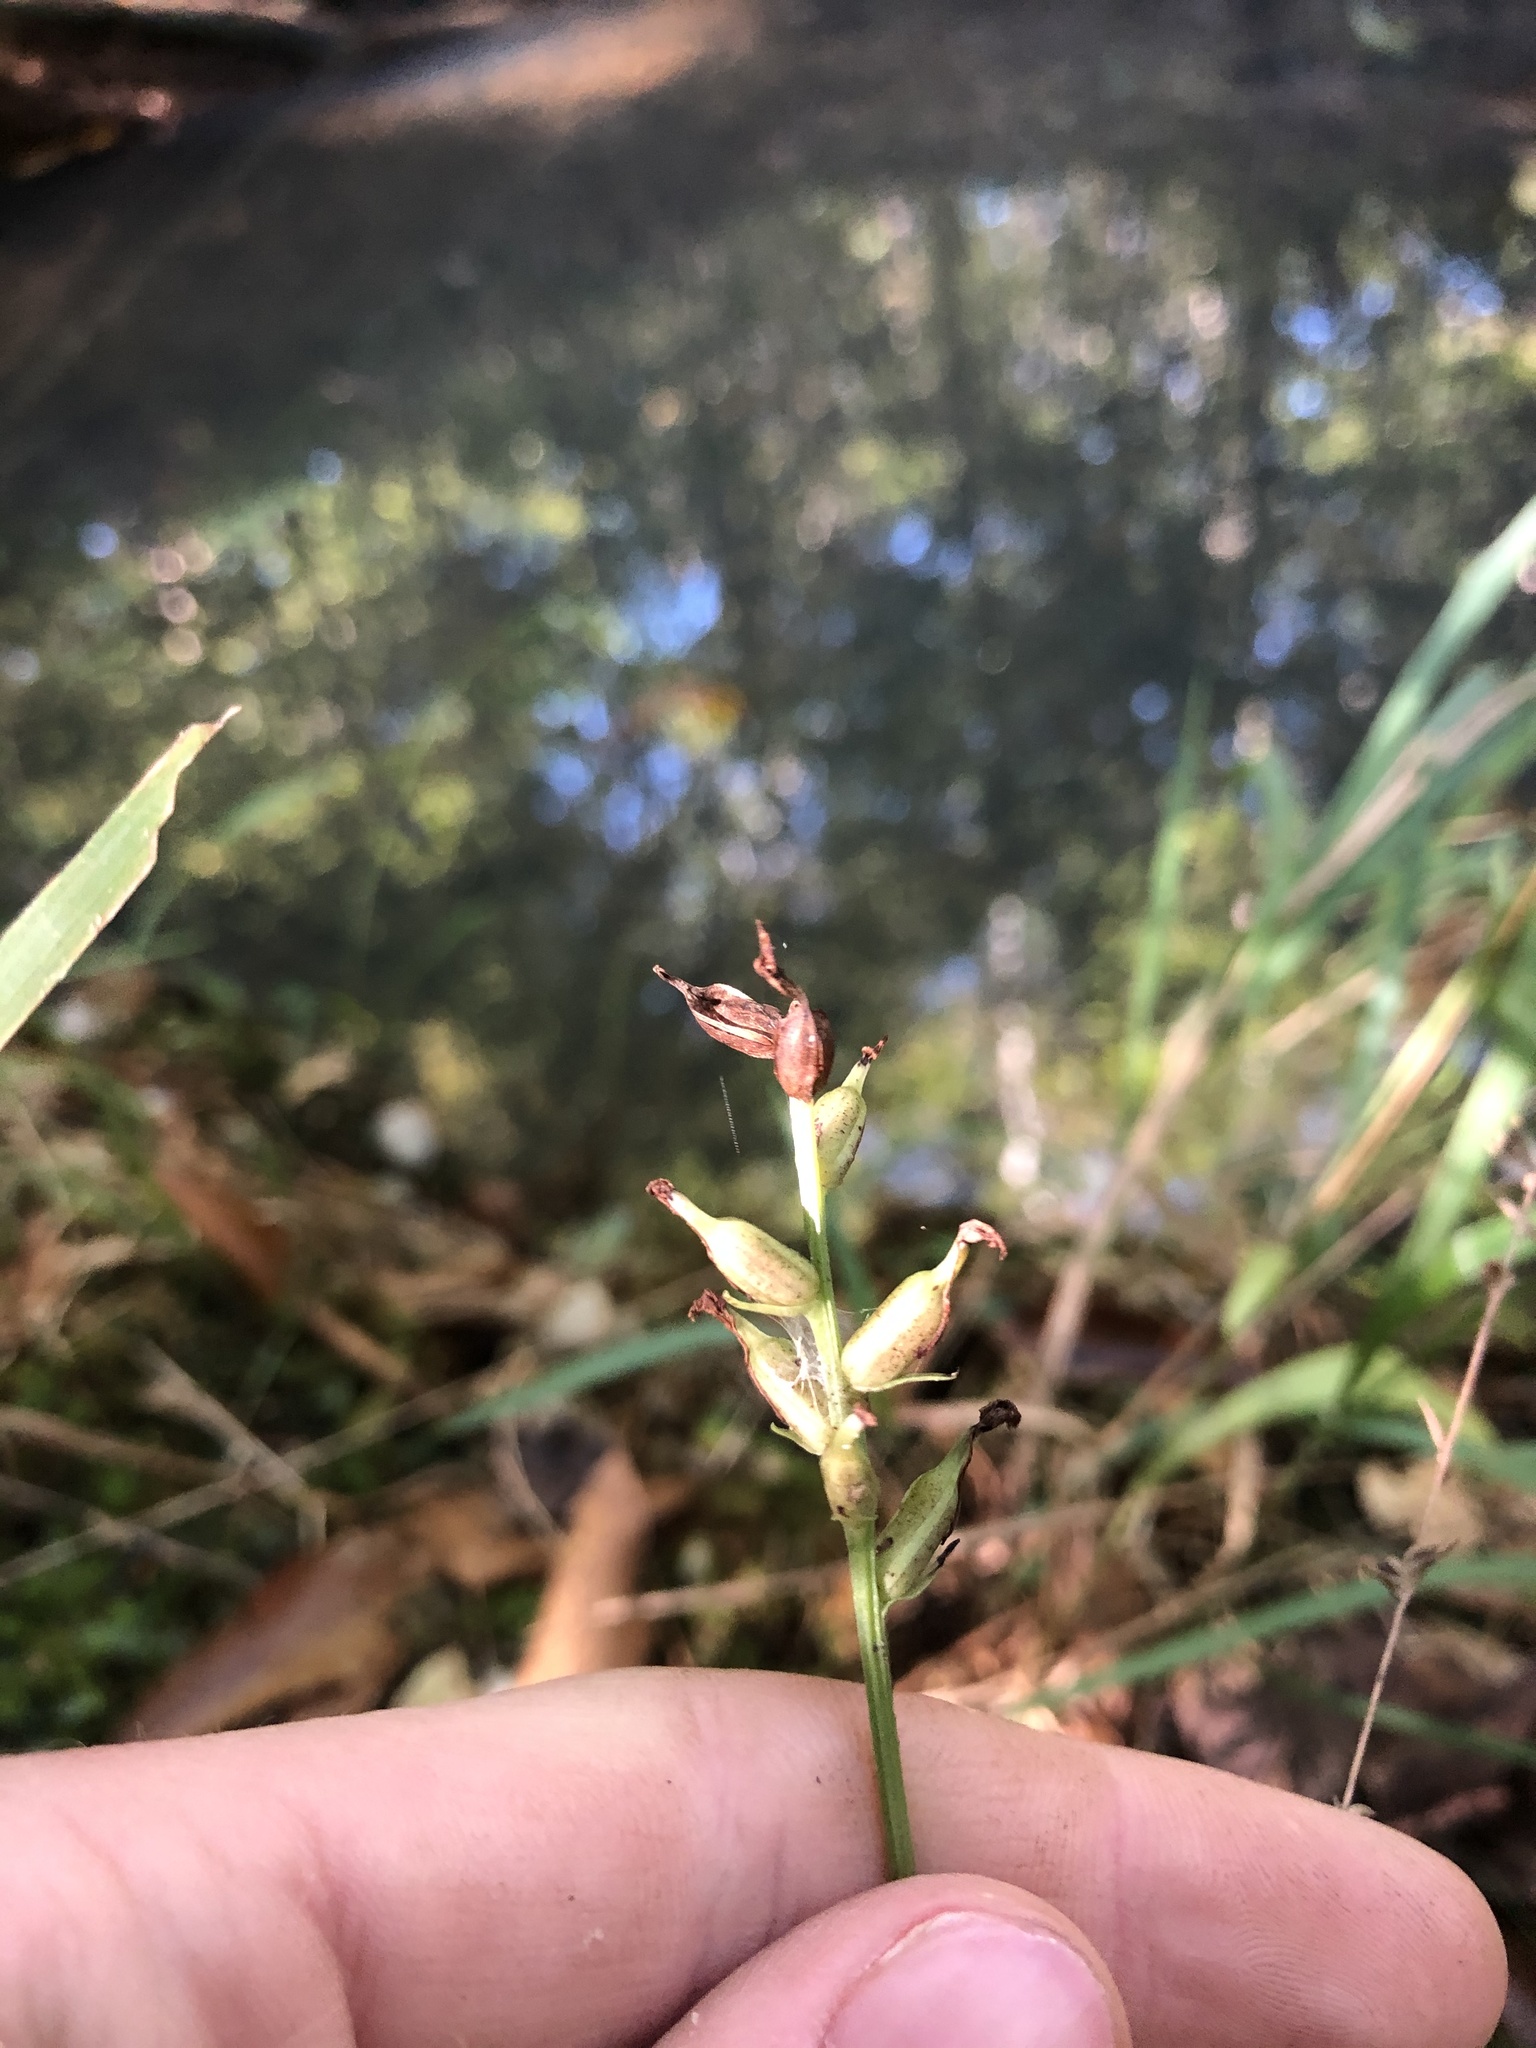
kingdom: Plantae
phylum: Tracheophyta
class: Liliopsida
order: Asparagales
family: Orchidaceae
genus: Platanthera
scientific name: Platanthera clavellata
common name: Club-spur orchid
